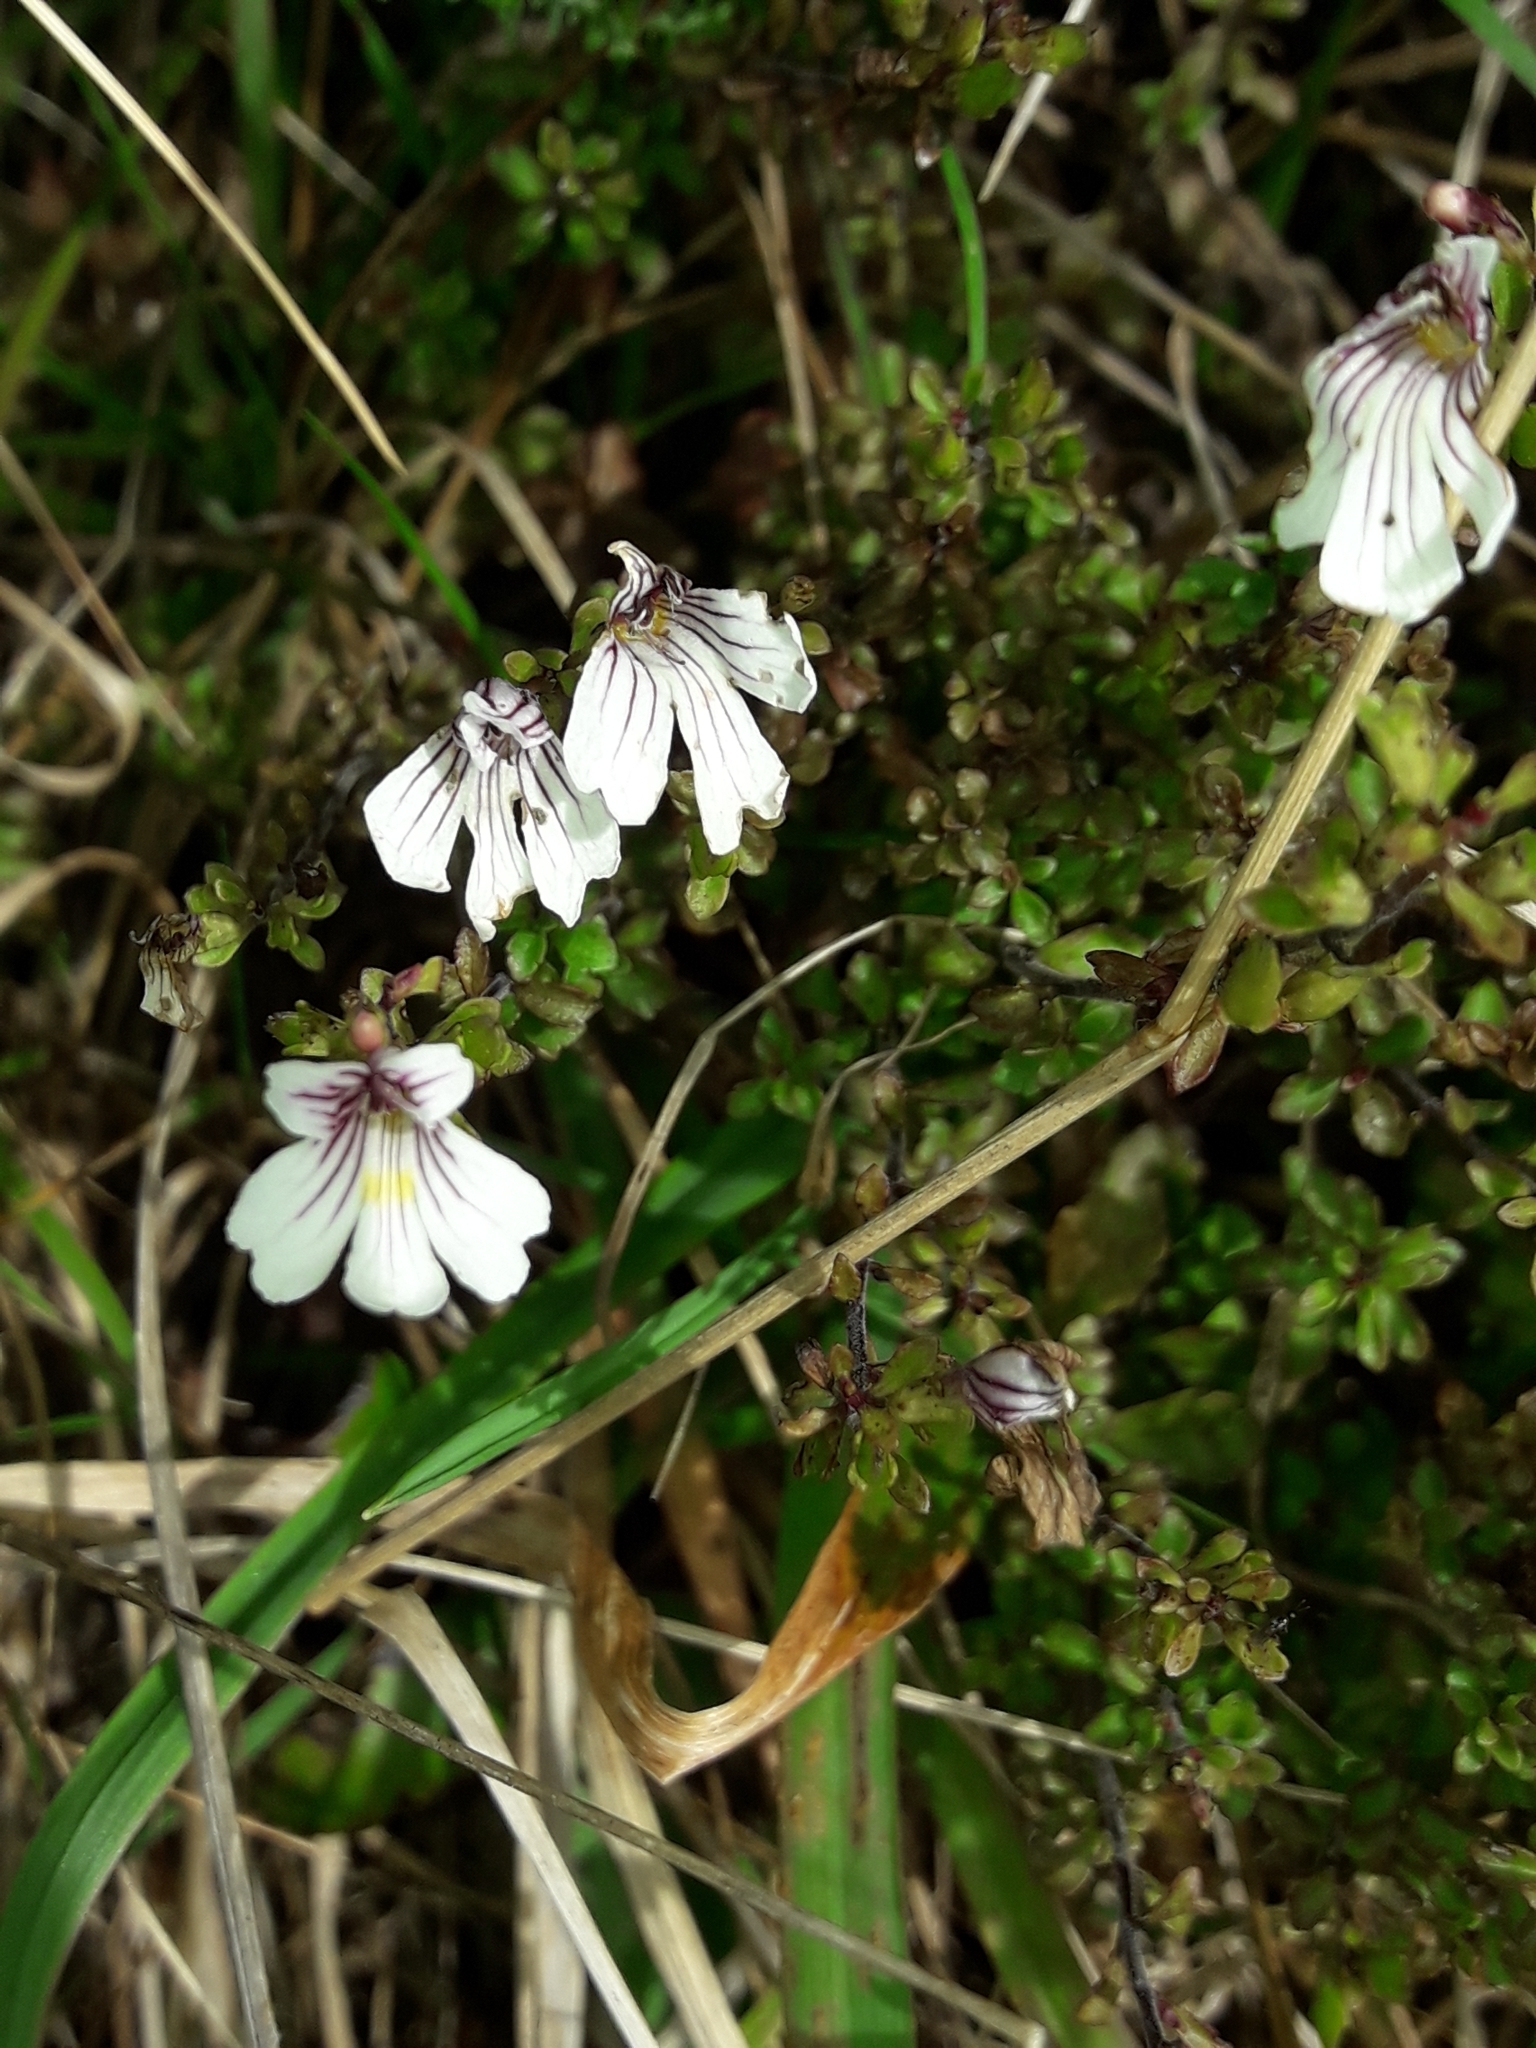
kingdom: Plantae
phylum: Tracheophyta
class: Magnoliopsida
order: Lamiales
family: Orobanchaceae
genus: Euphrasia
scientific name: Euphrasia cuneata
